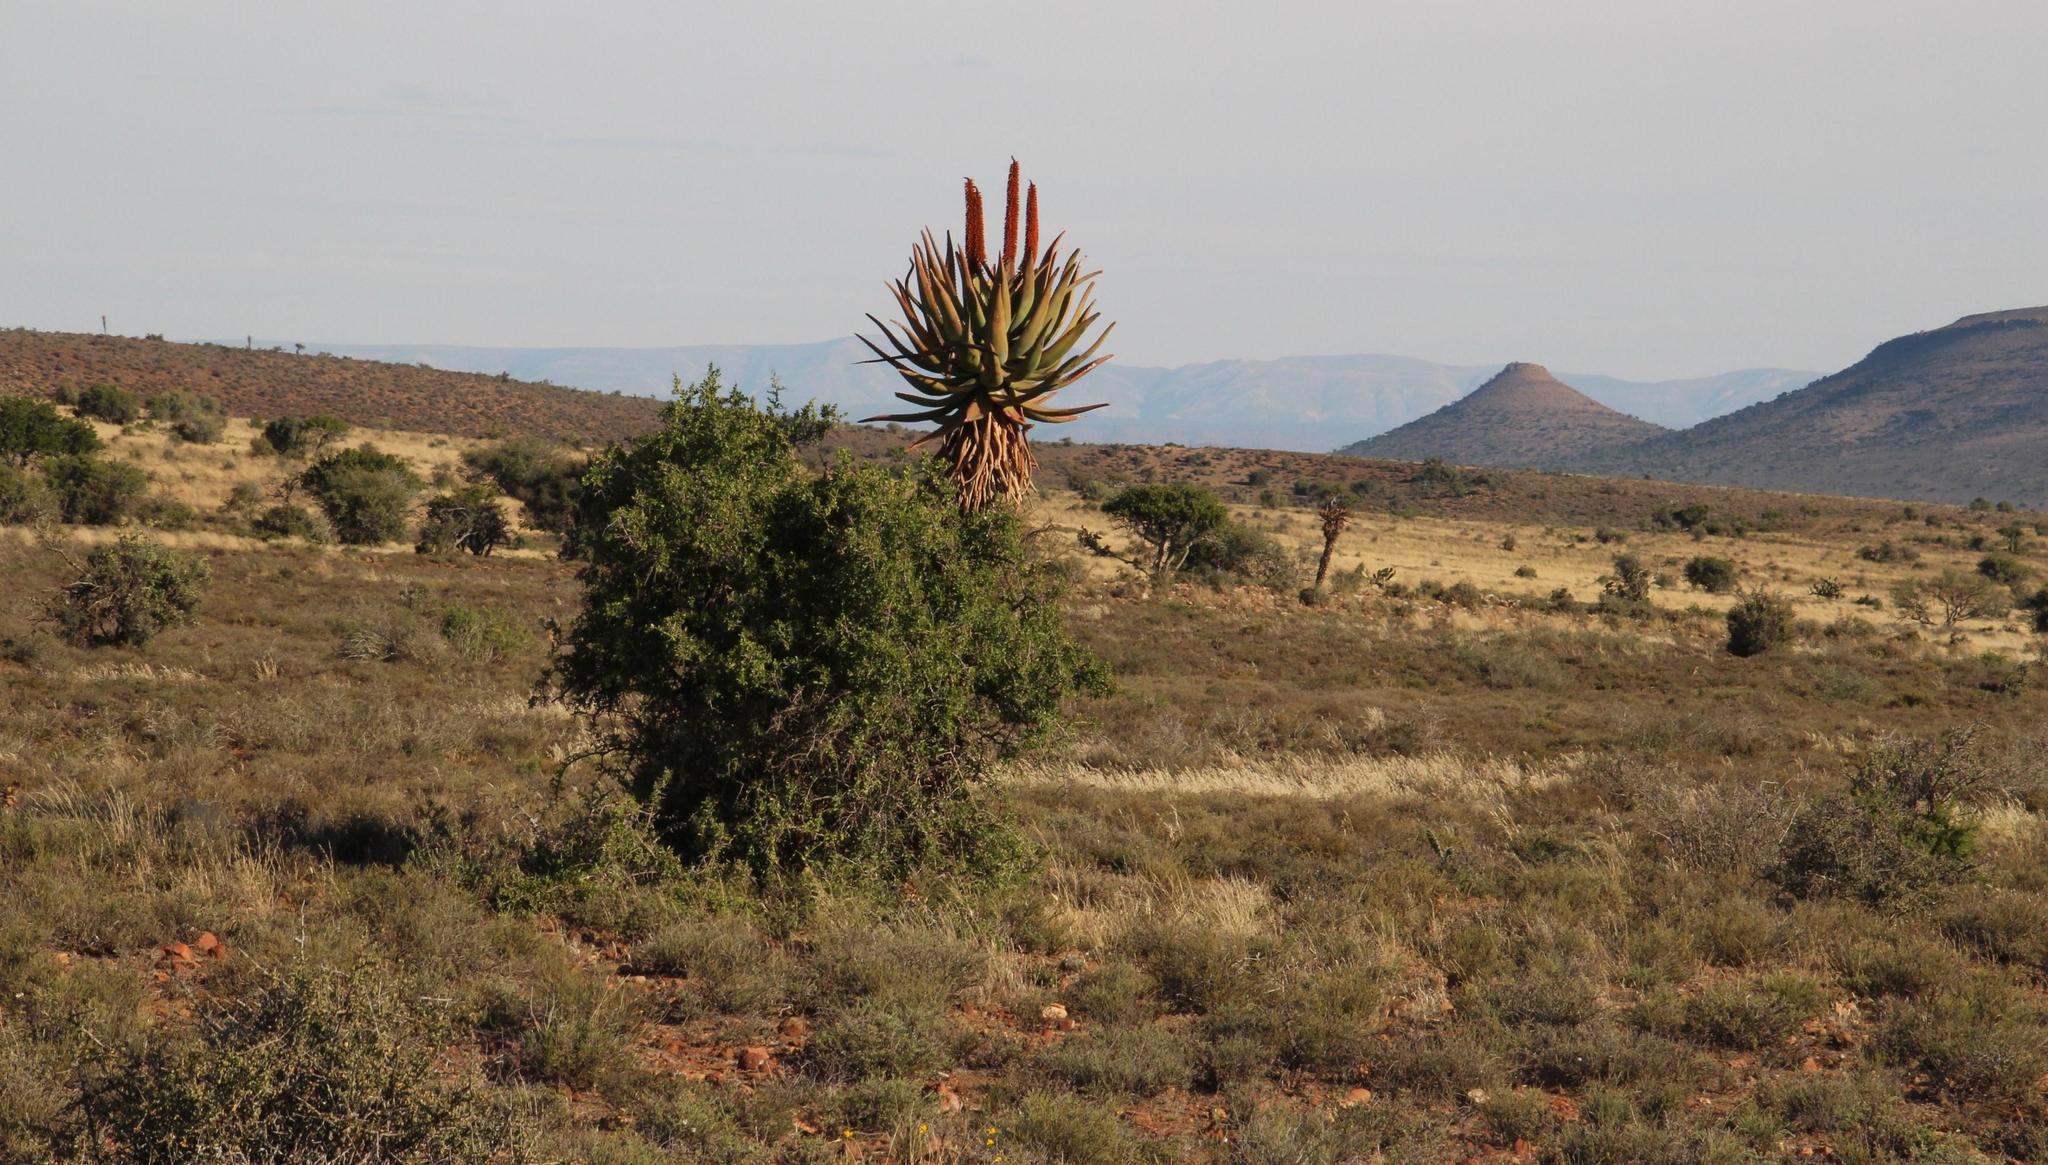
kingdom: Plantae
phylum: Tracheophyta
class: Liliopsida
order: Asparagales
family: Asphodelaceae
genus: Aloe
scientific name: Aloe ferox
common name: Bitter aloe
